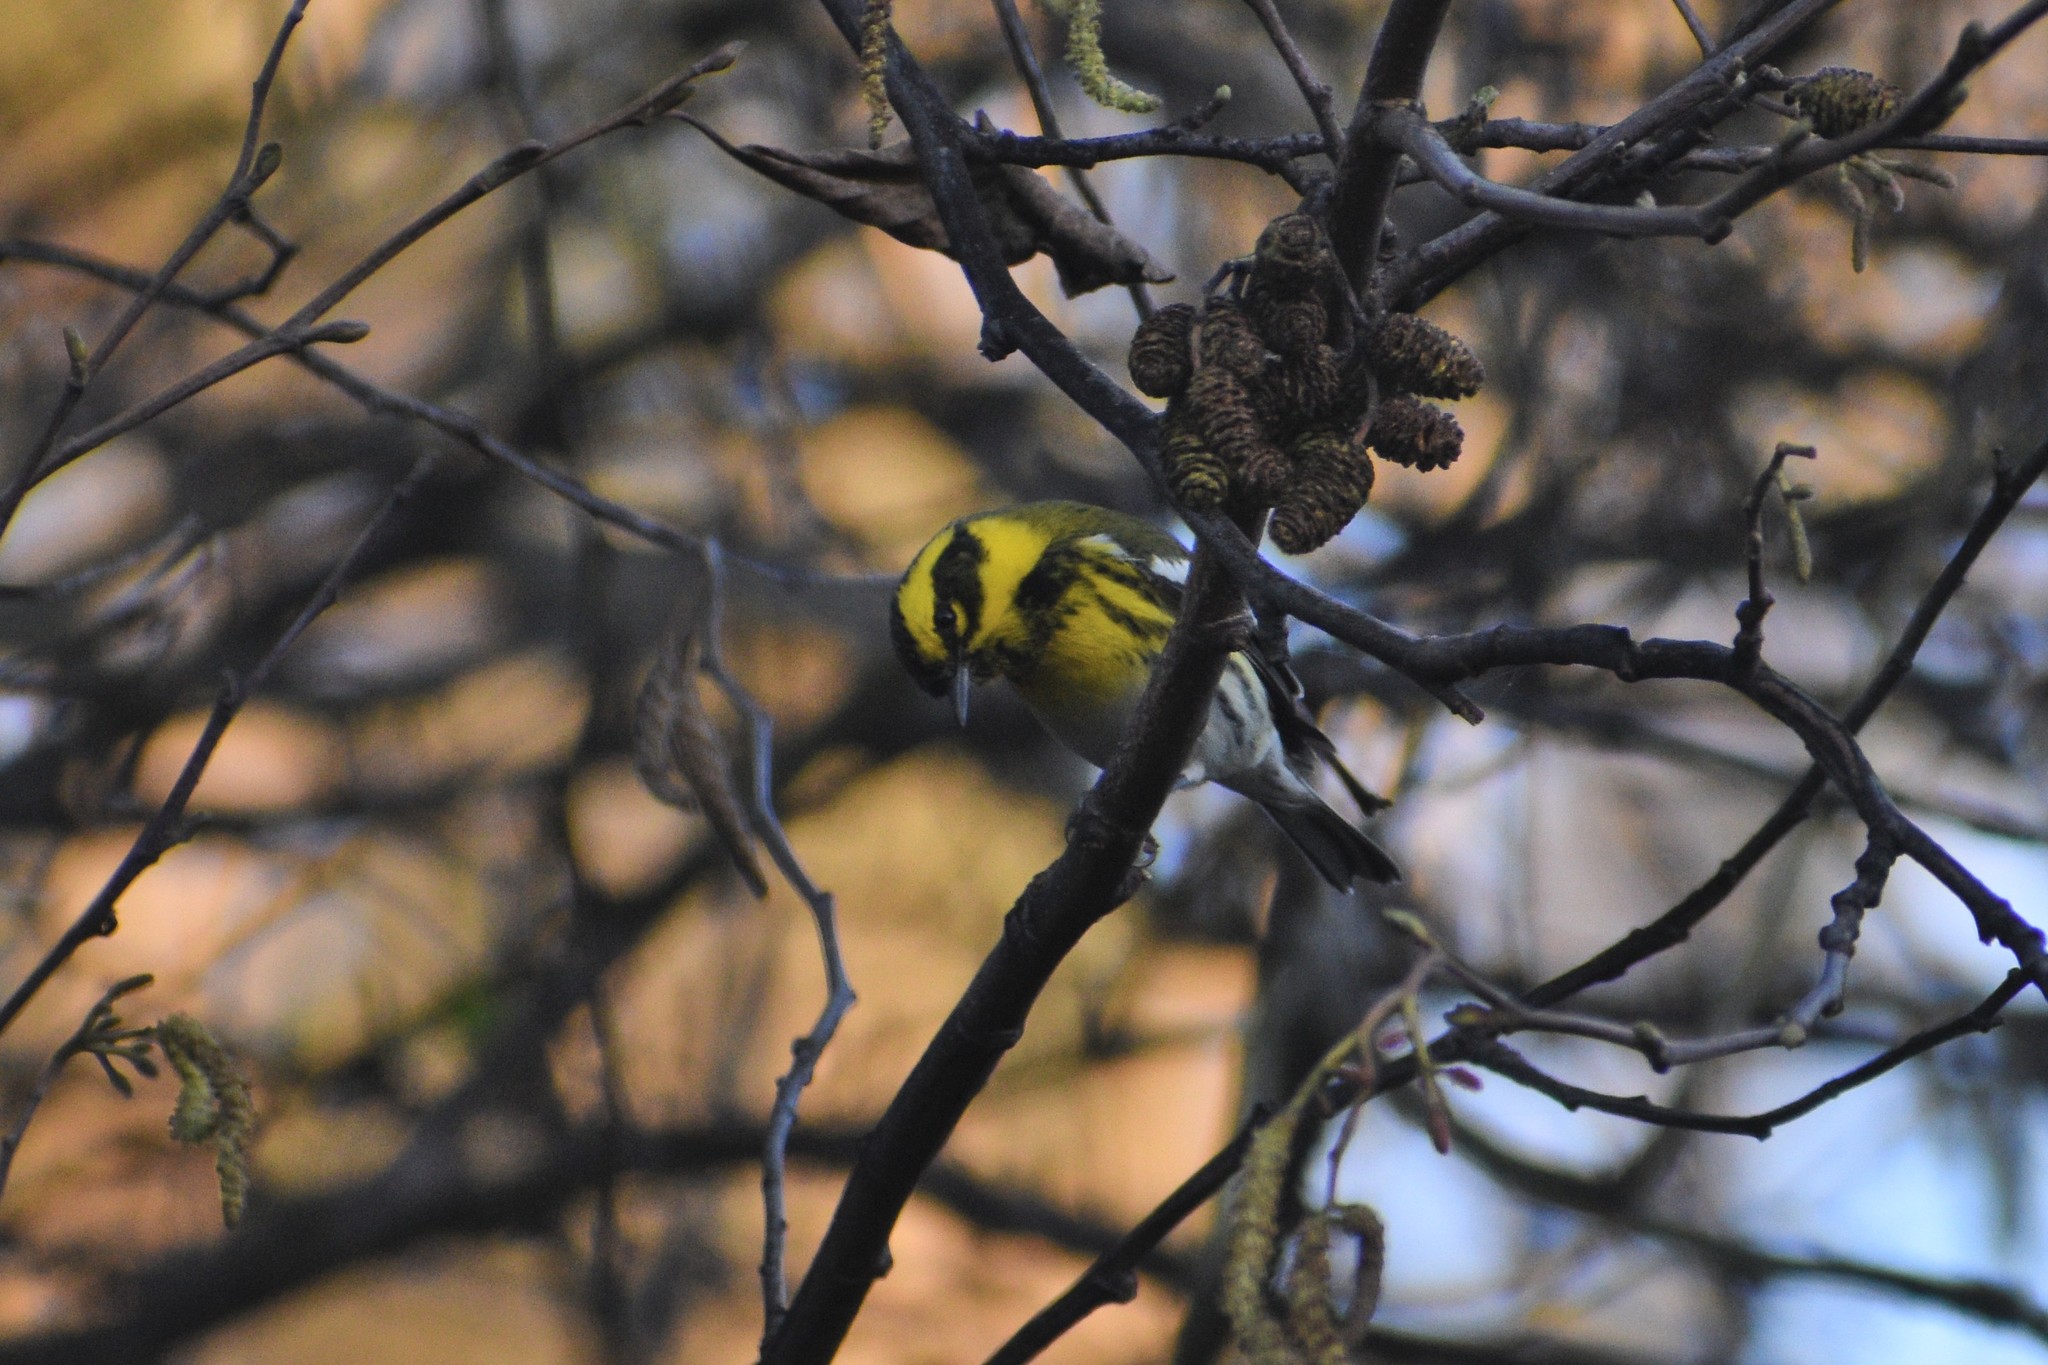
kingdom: Animalia
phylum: Chordata
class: Aves
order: Passeriformes
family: Parulidae
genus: Setophaga
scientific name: Setophaga townsendi
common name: Townsend's warbler
